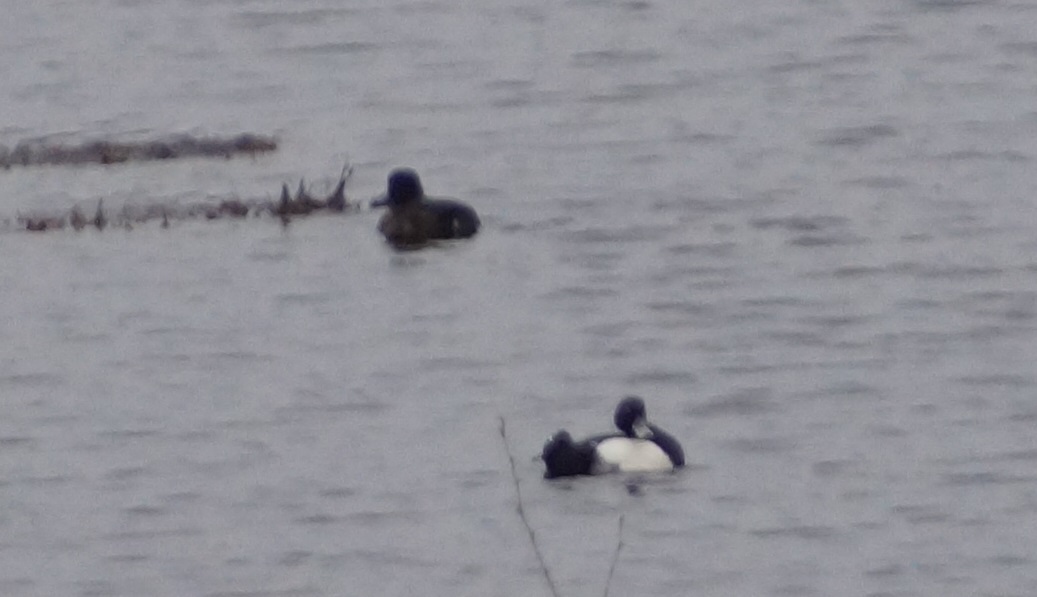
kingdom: Animalia
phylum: Chordata
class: Aves
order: Anseriformes
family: Anatidae
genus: Aythya
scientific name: Aythya fuligula
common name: Tufted duck
